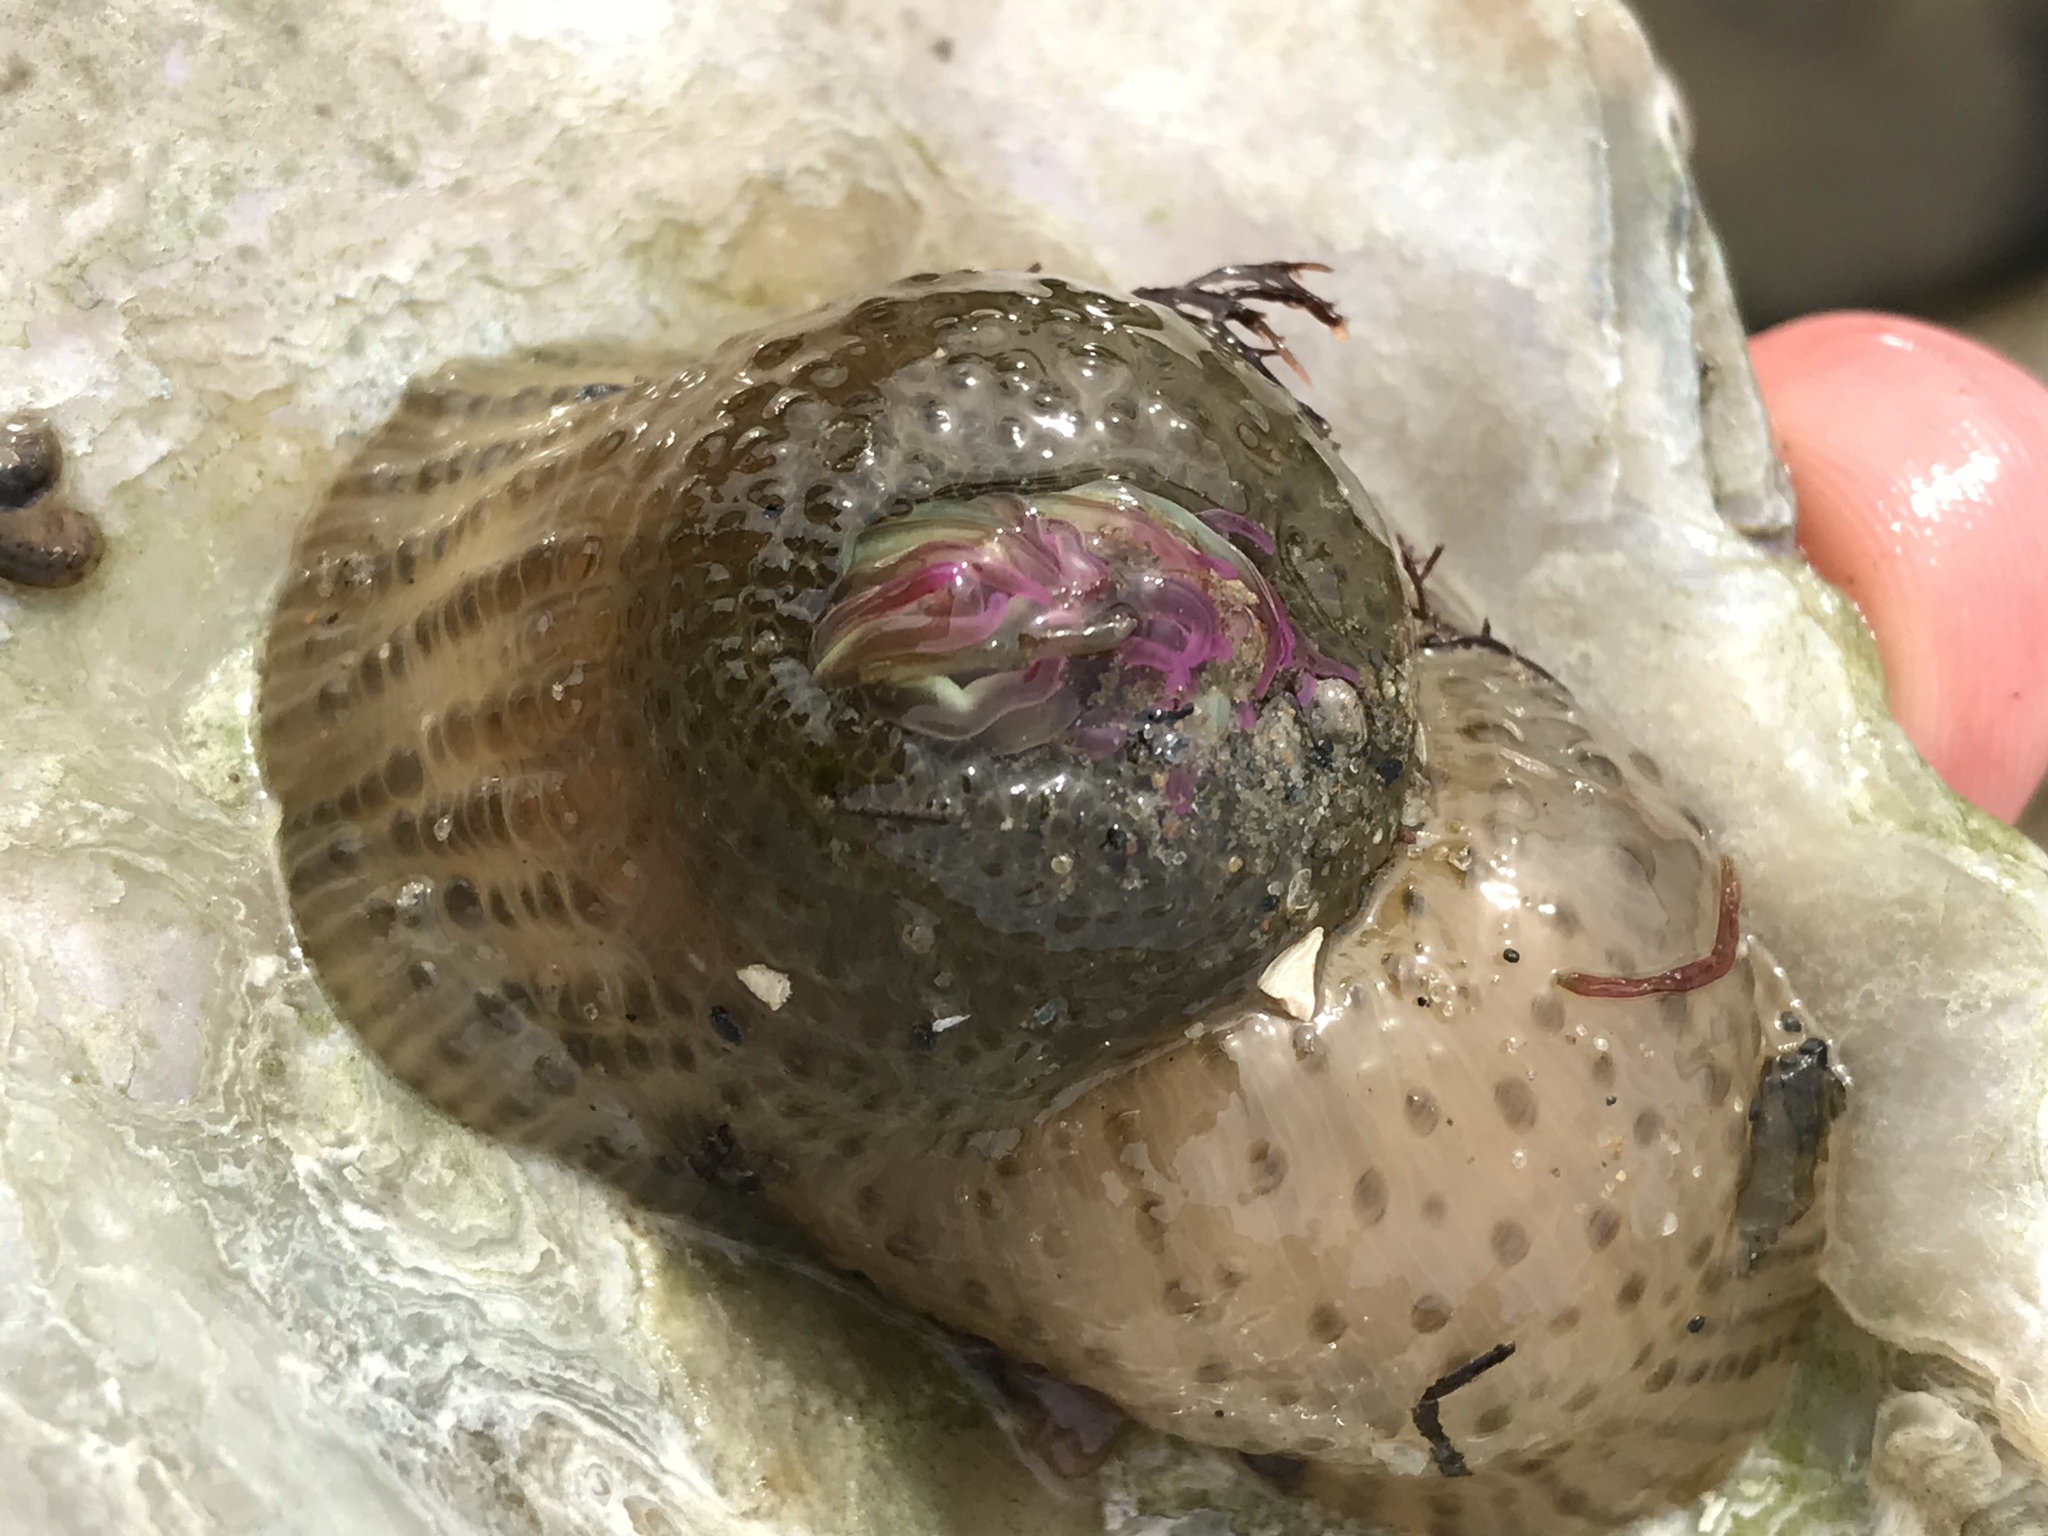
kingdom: Animalia
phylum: Cnidaria
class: Anthozoa
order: Actiniaria
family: Actiniidae
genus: Anthopleura
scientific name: Anthopleura elegantissima
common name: Clonal anemone
